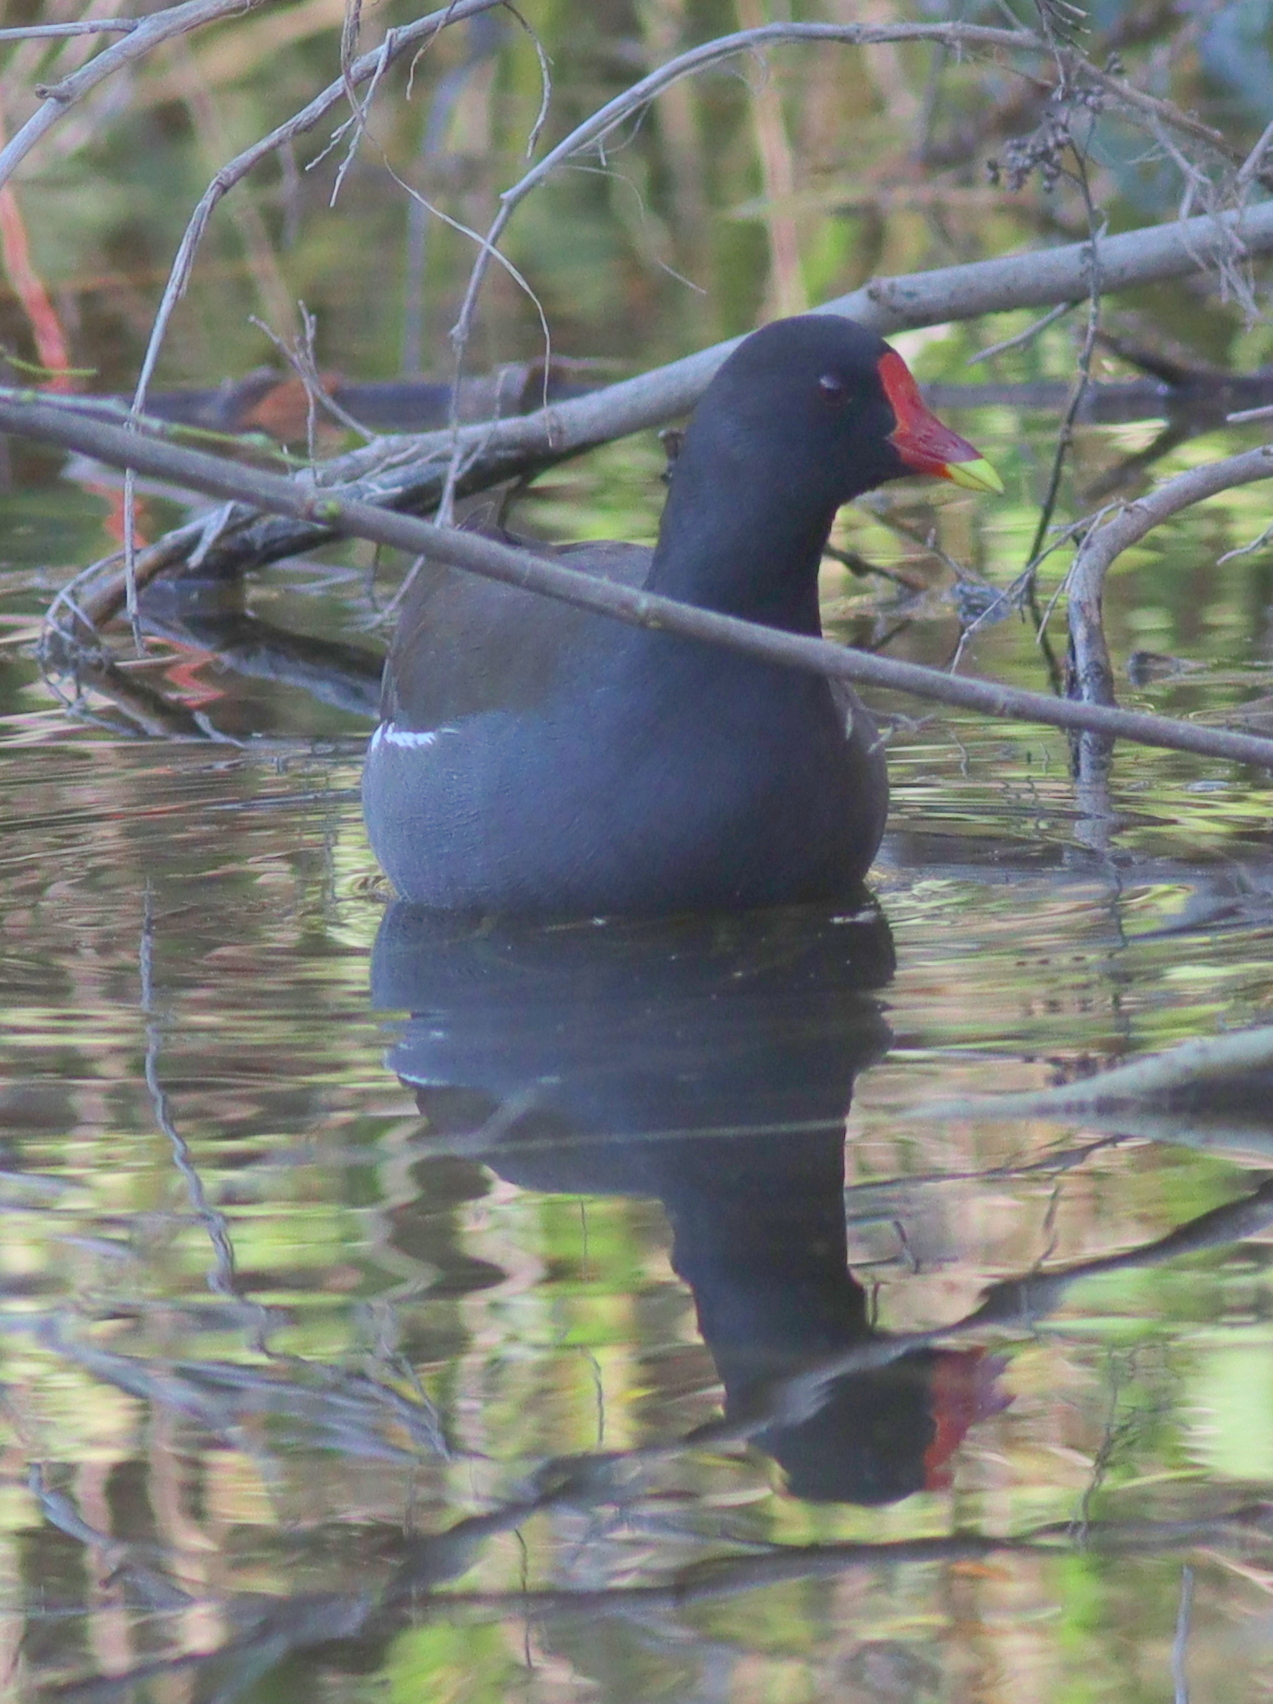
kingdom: Animalia
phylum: Chordata
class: Aves
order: Gruiformes
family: Rallidae
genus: Gallinula
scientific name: Gallinula chloropus
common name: Common moorhen
